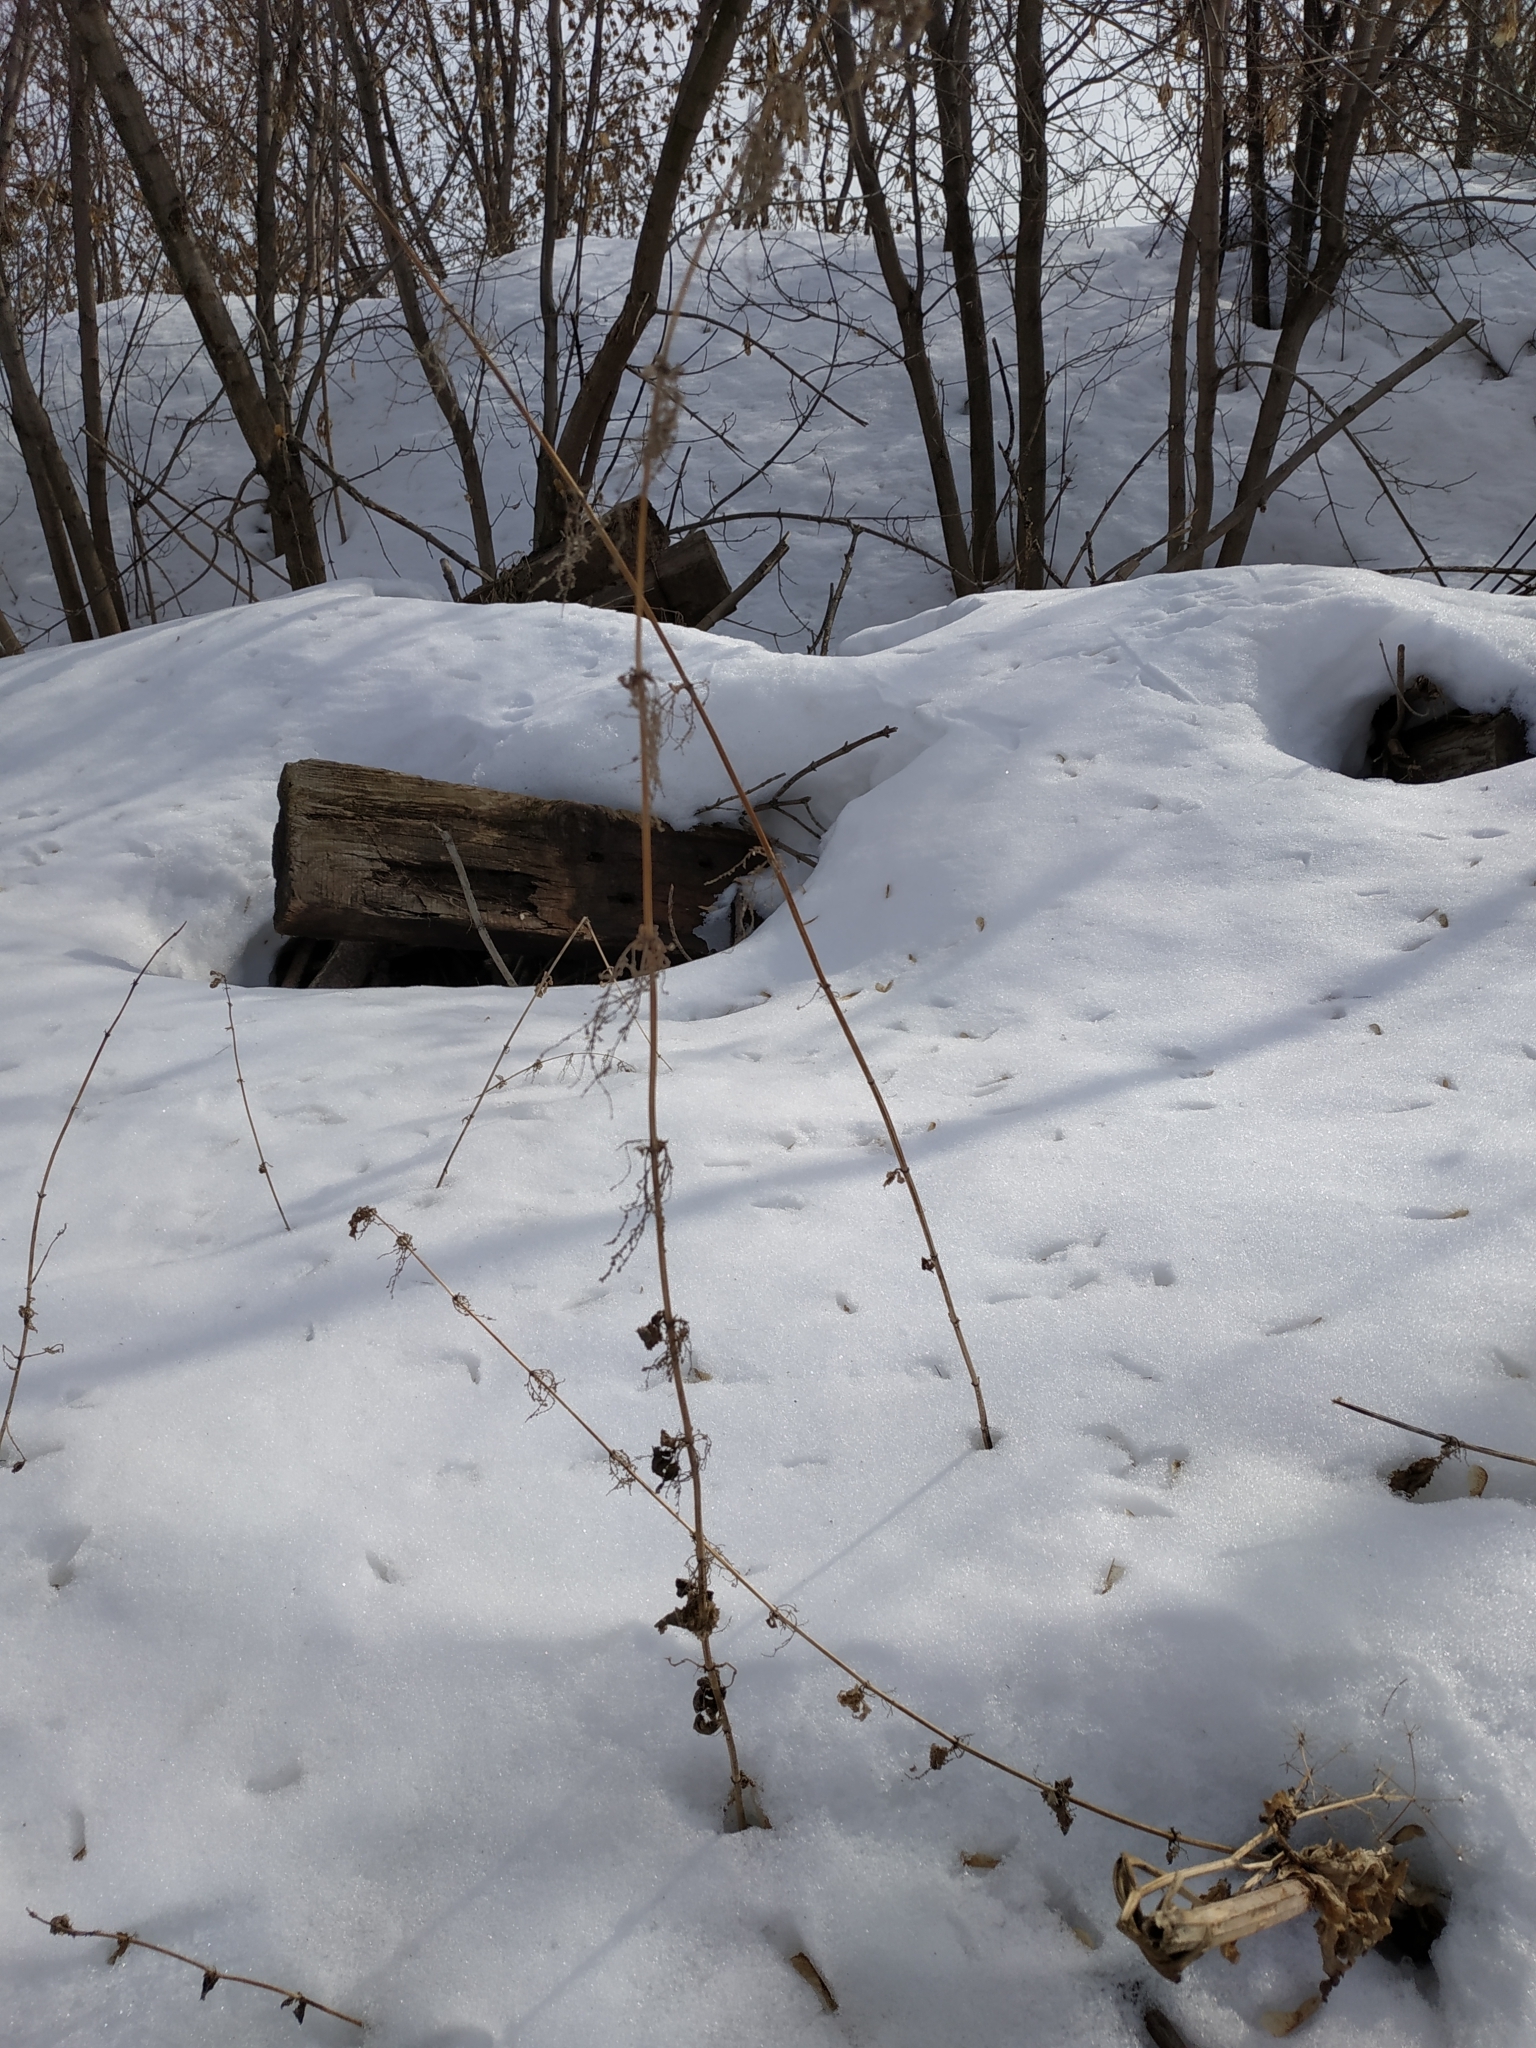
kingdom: Plantae
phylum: Tracheophyta
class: Magnoliopsida
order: Rosales
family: Urticaceae
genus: Urtica
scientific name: Urtica dioica
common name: Common nettle
